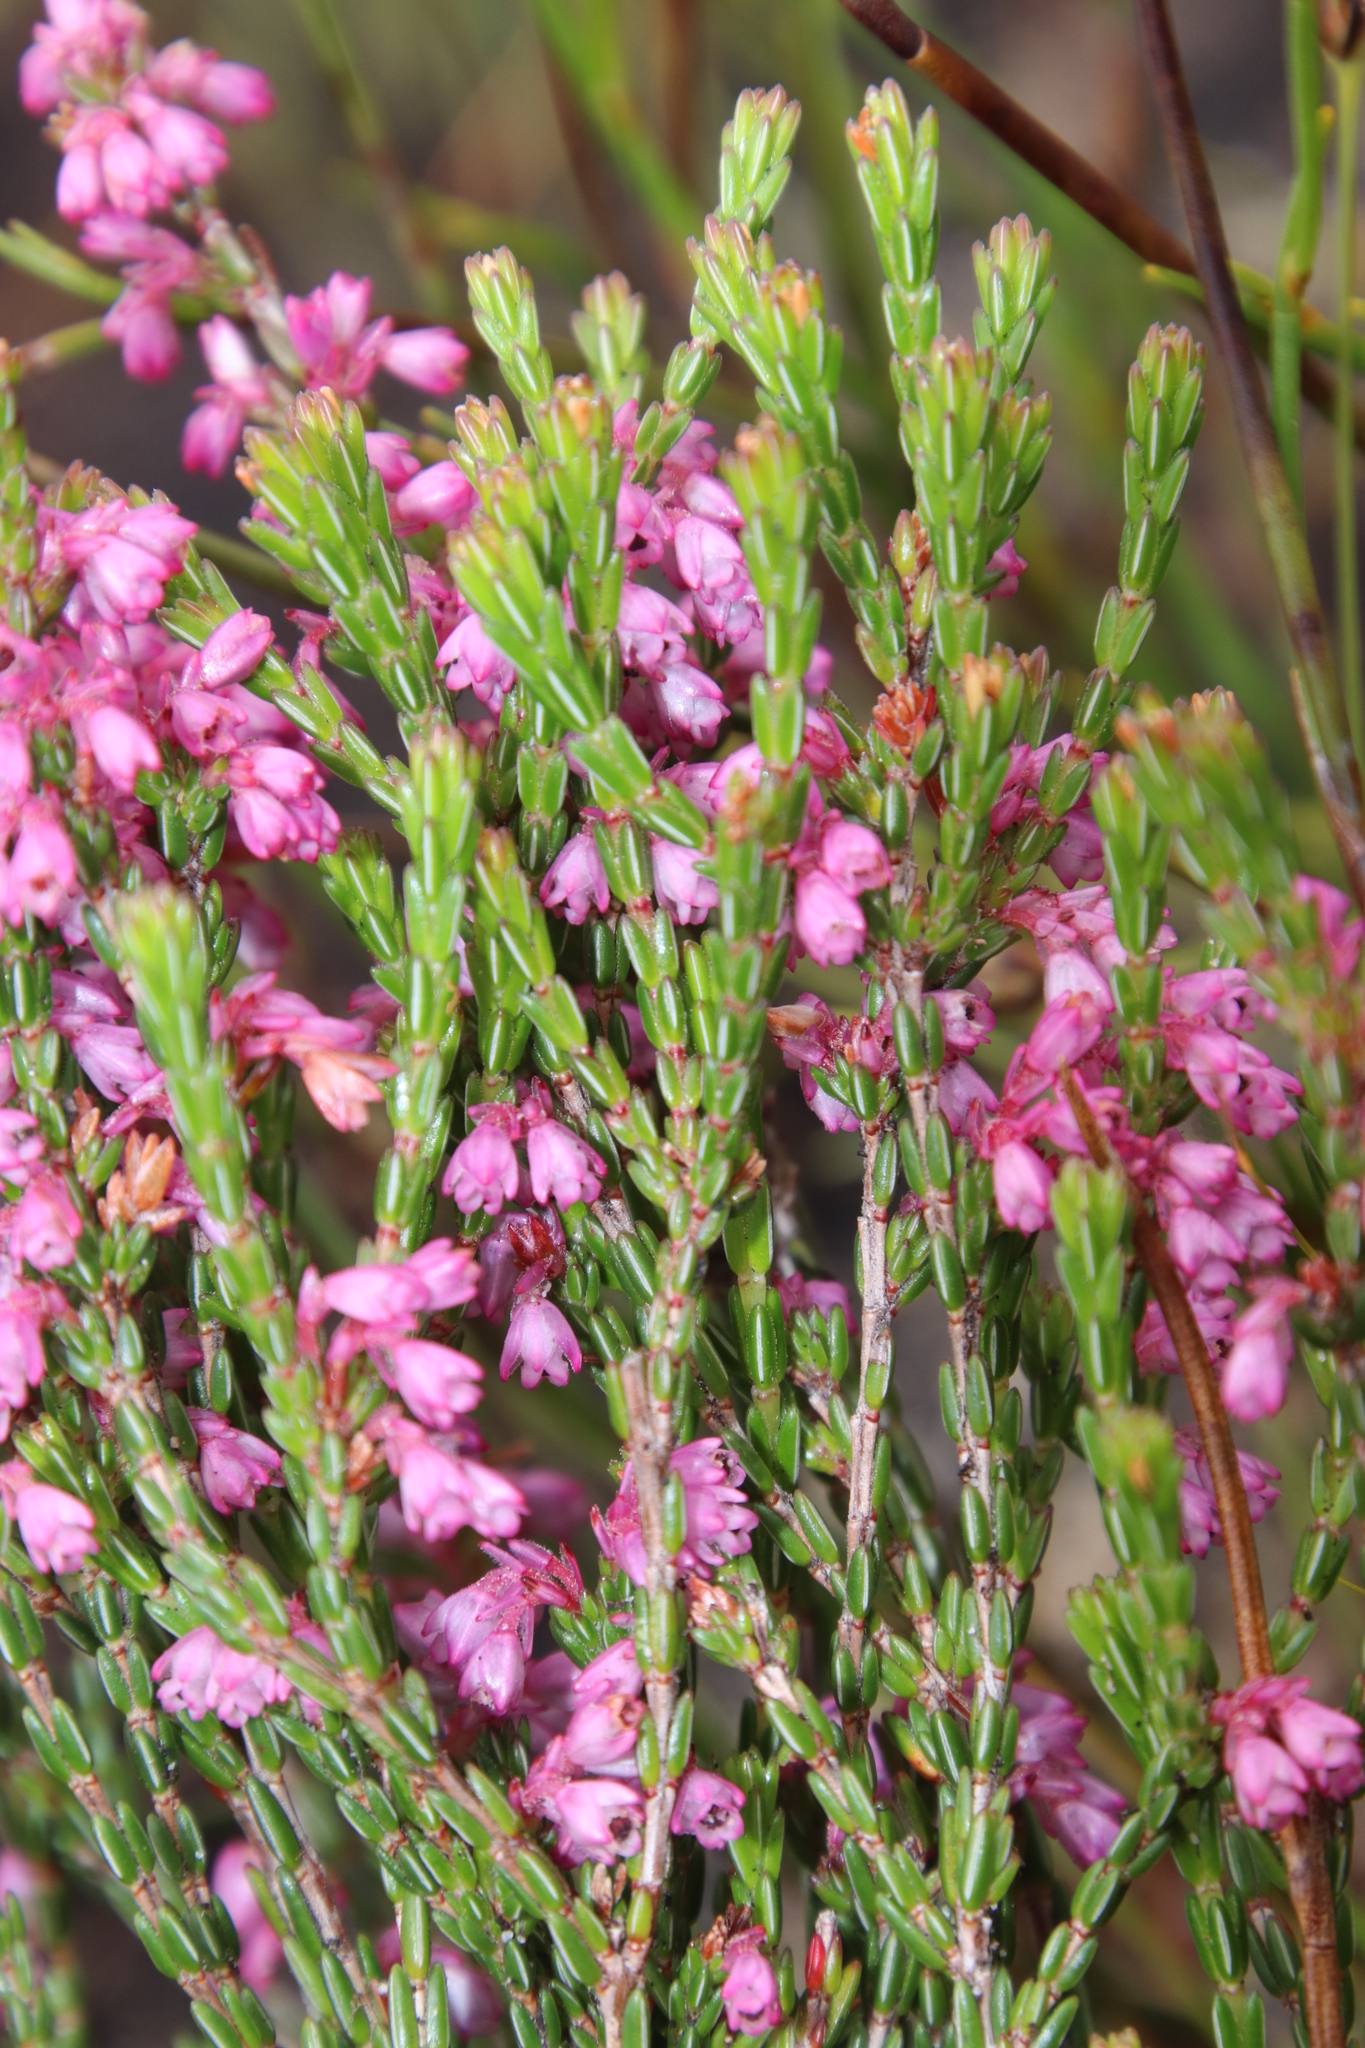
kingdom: Plantae
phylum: Tracheophyta
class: Magnoliopsida
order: Ericales
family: Ericaceae
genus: Erica
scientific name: Erica gnaphaloides
